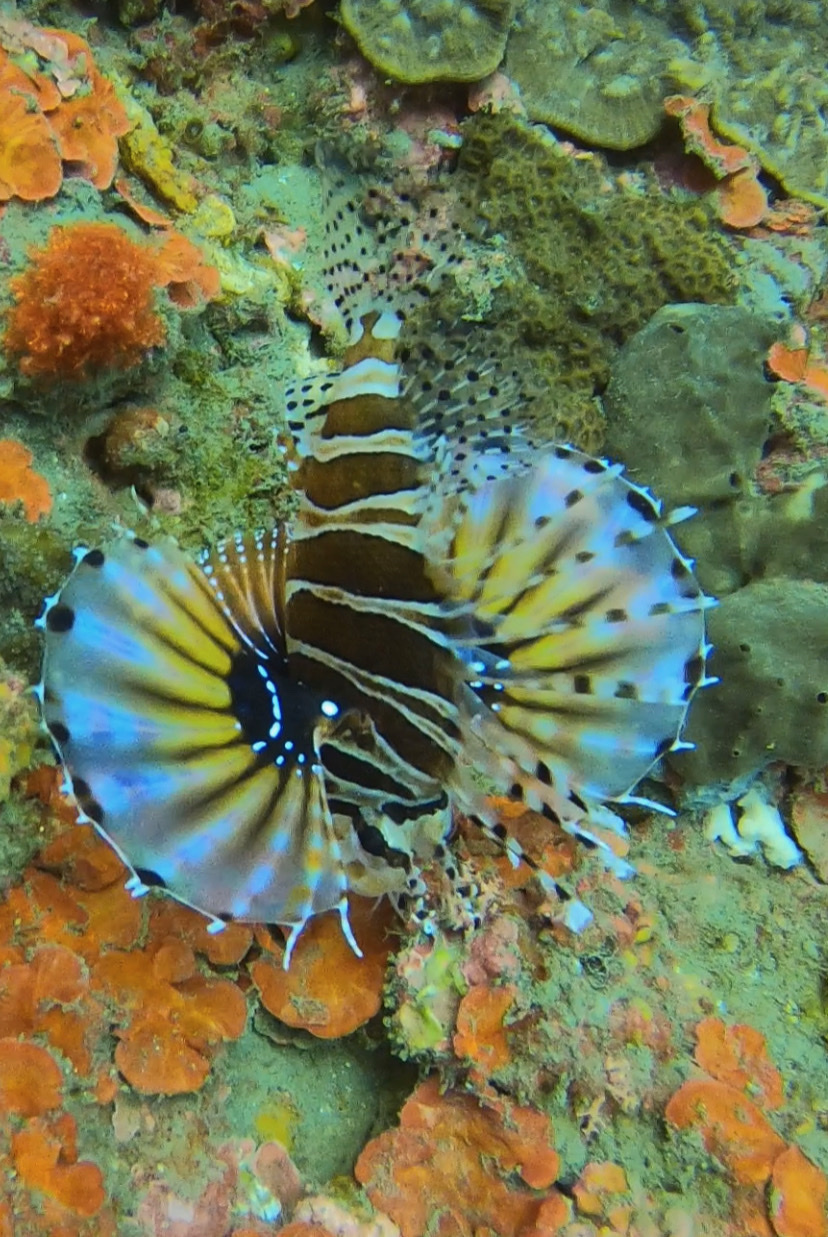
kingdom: Animalia
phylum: Chordata
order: Scorpaeniformes
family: Scorpaenidae
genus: Dendrochirus
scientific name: Dendrochirus zebra
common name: Zebra lionfish
